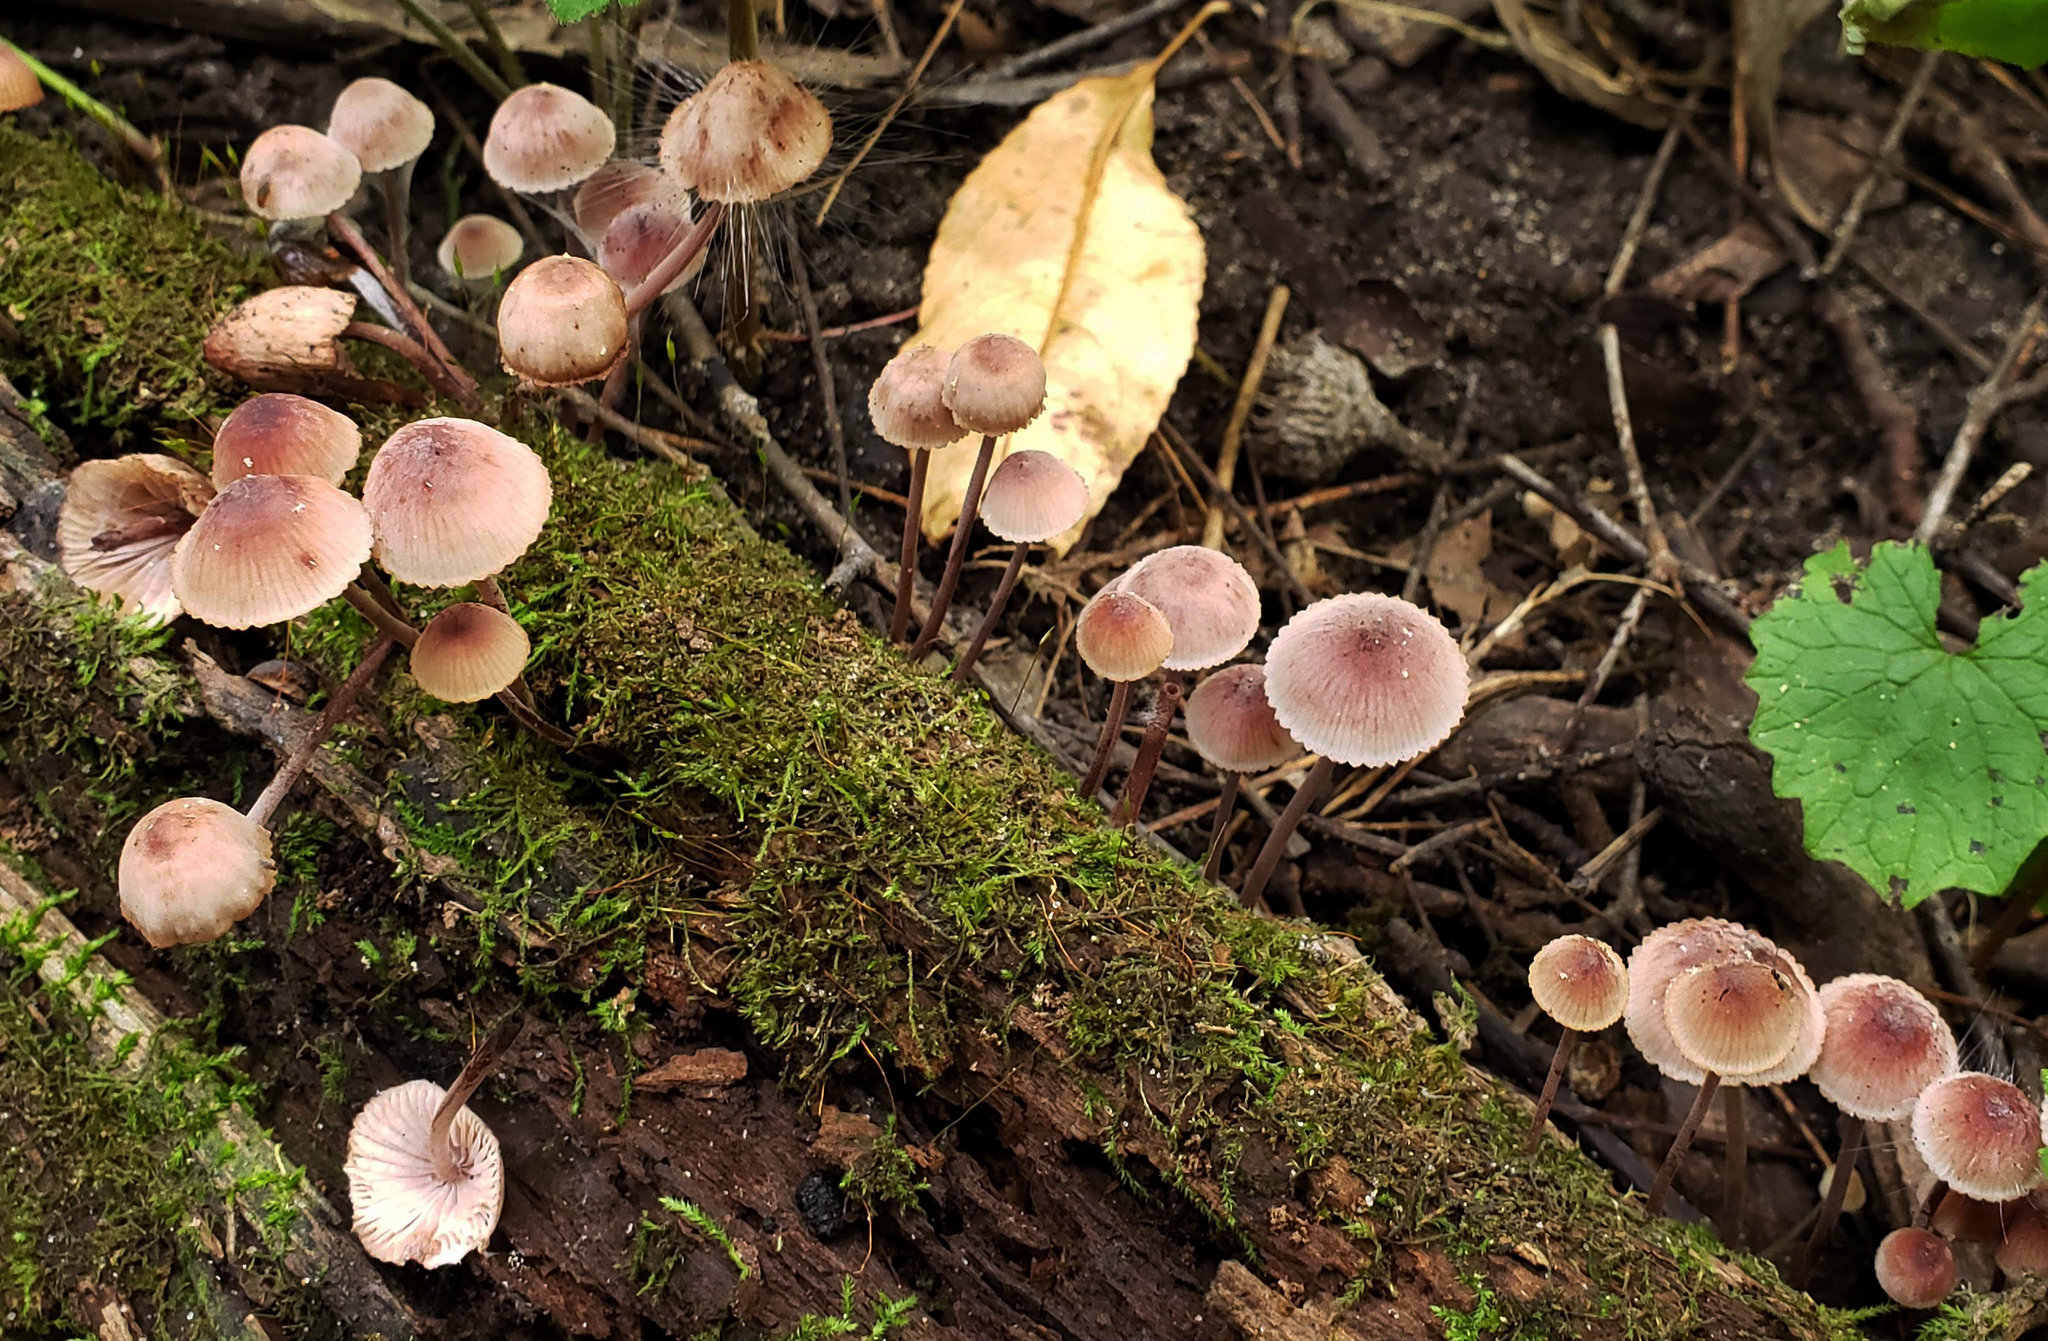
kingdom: Fungi
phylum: Basidiomycota
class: Agaricomycetes
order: Agaricales
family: Mycenaceae
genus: Mycena
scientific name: Mycena haematopus
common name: Burgundydrop bonnet
